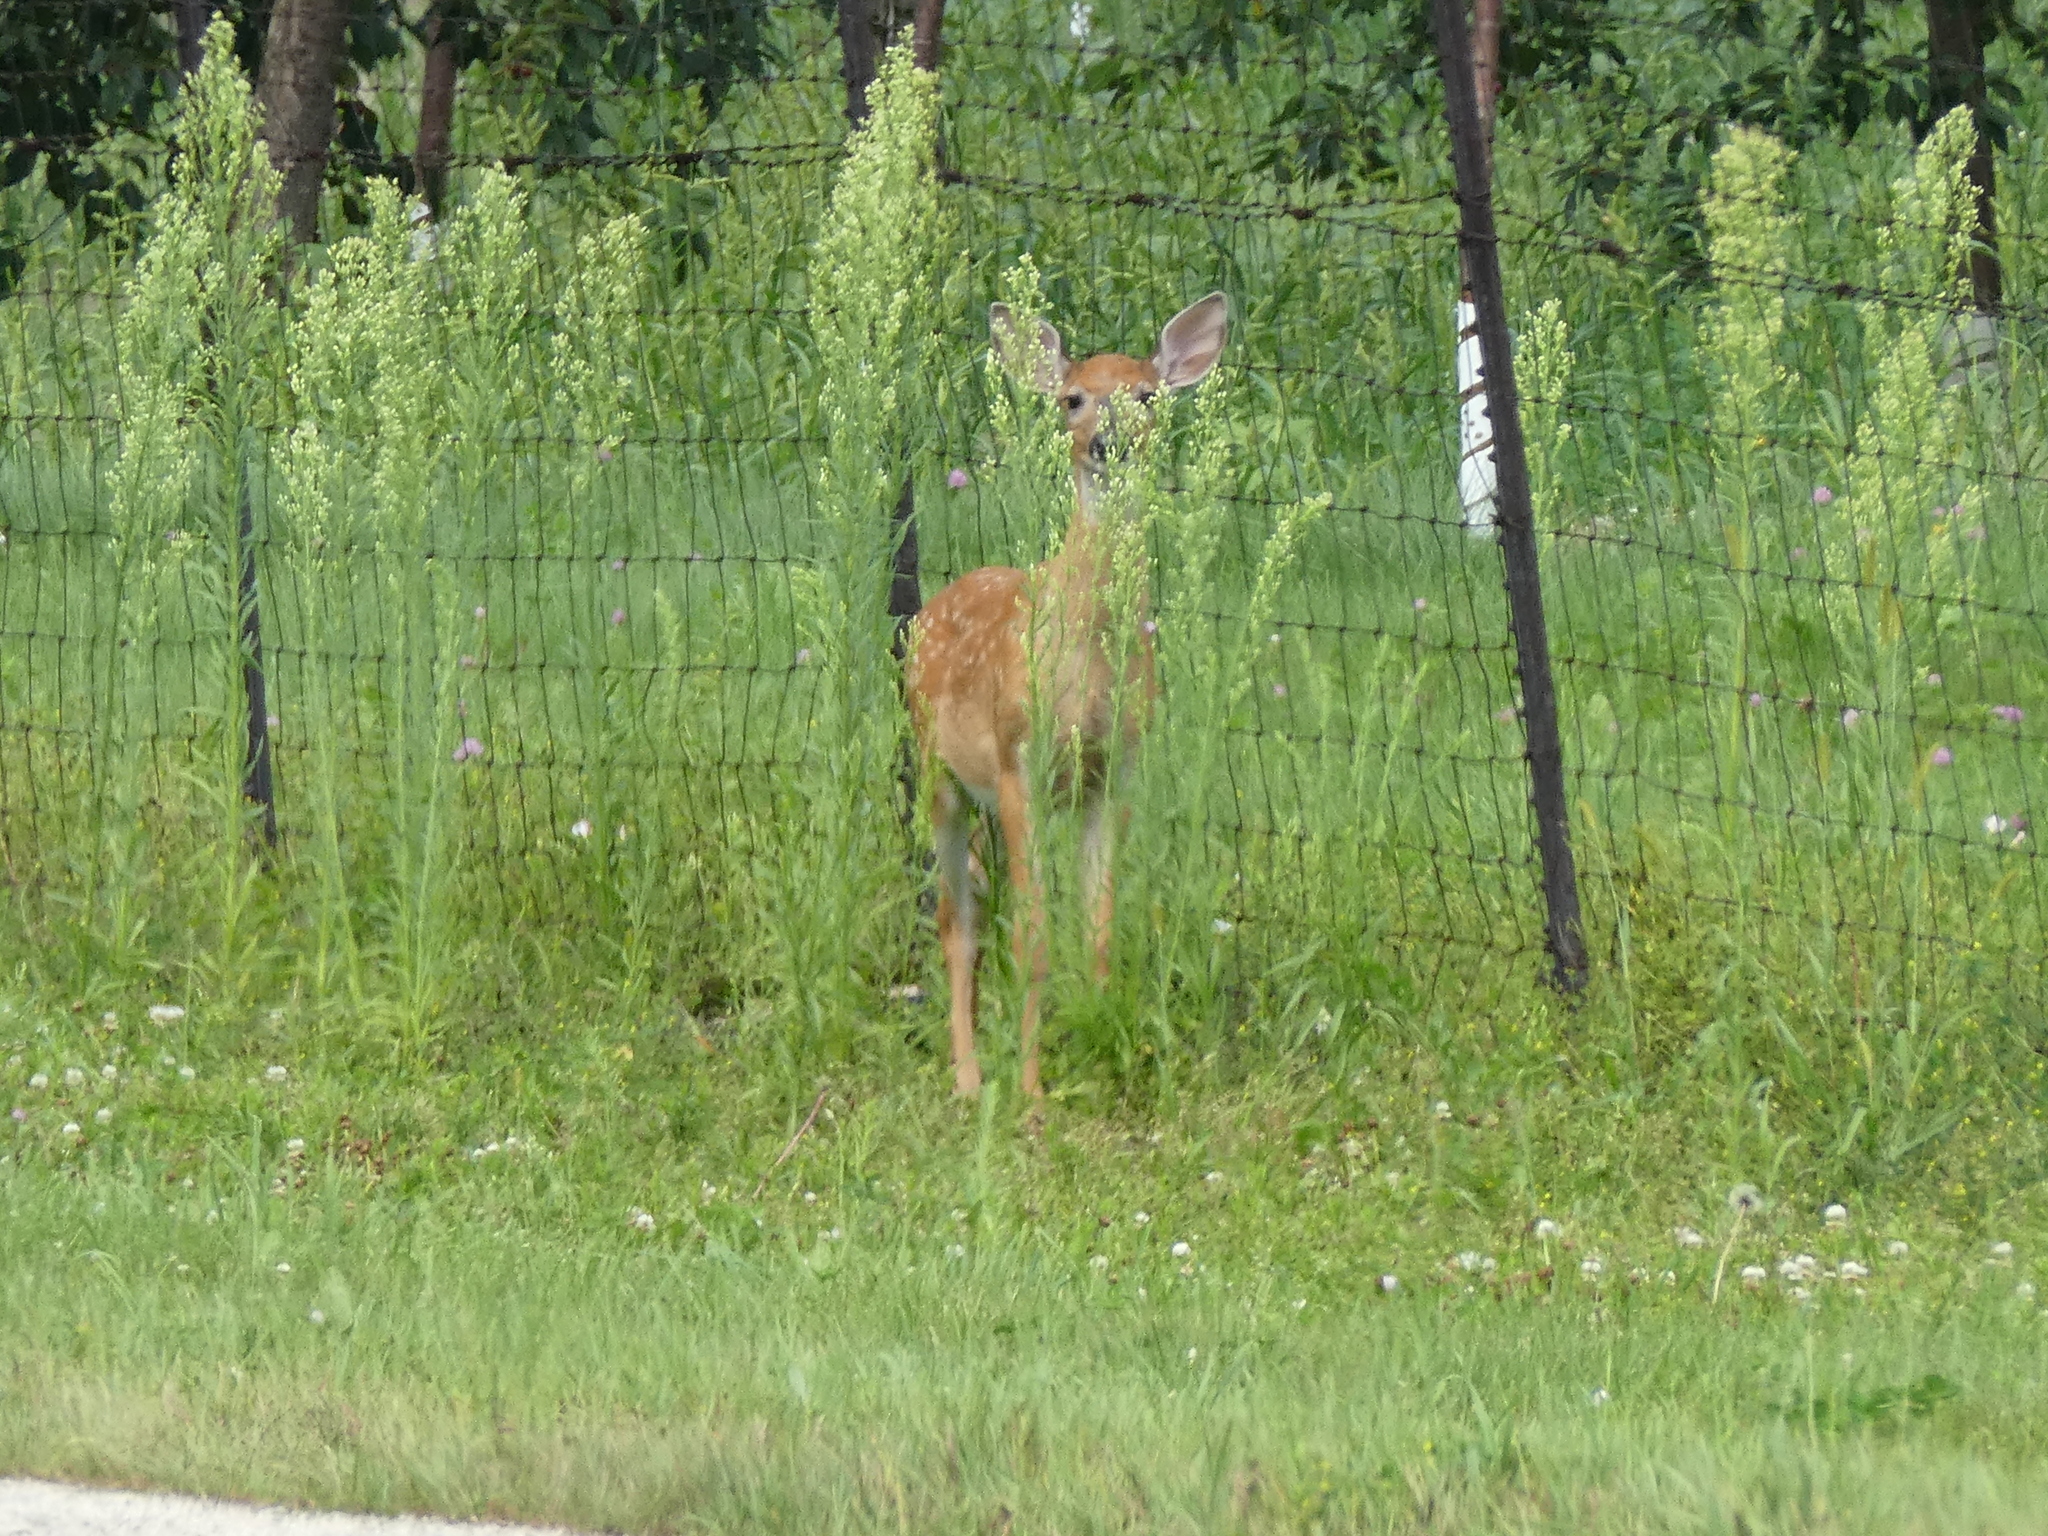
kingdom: Animalia
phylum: Chordata
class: Mammalia
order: Artiodactyla
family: Cervidae
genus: Odocoileus
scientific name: Odocoileus virginianus
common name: White-tailed deer
